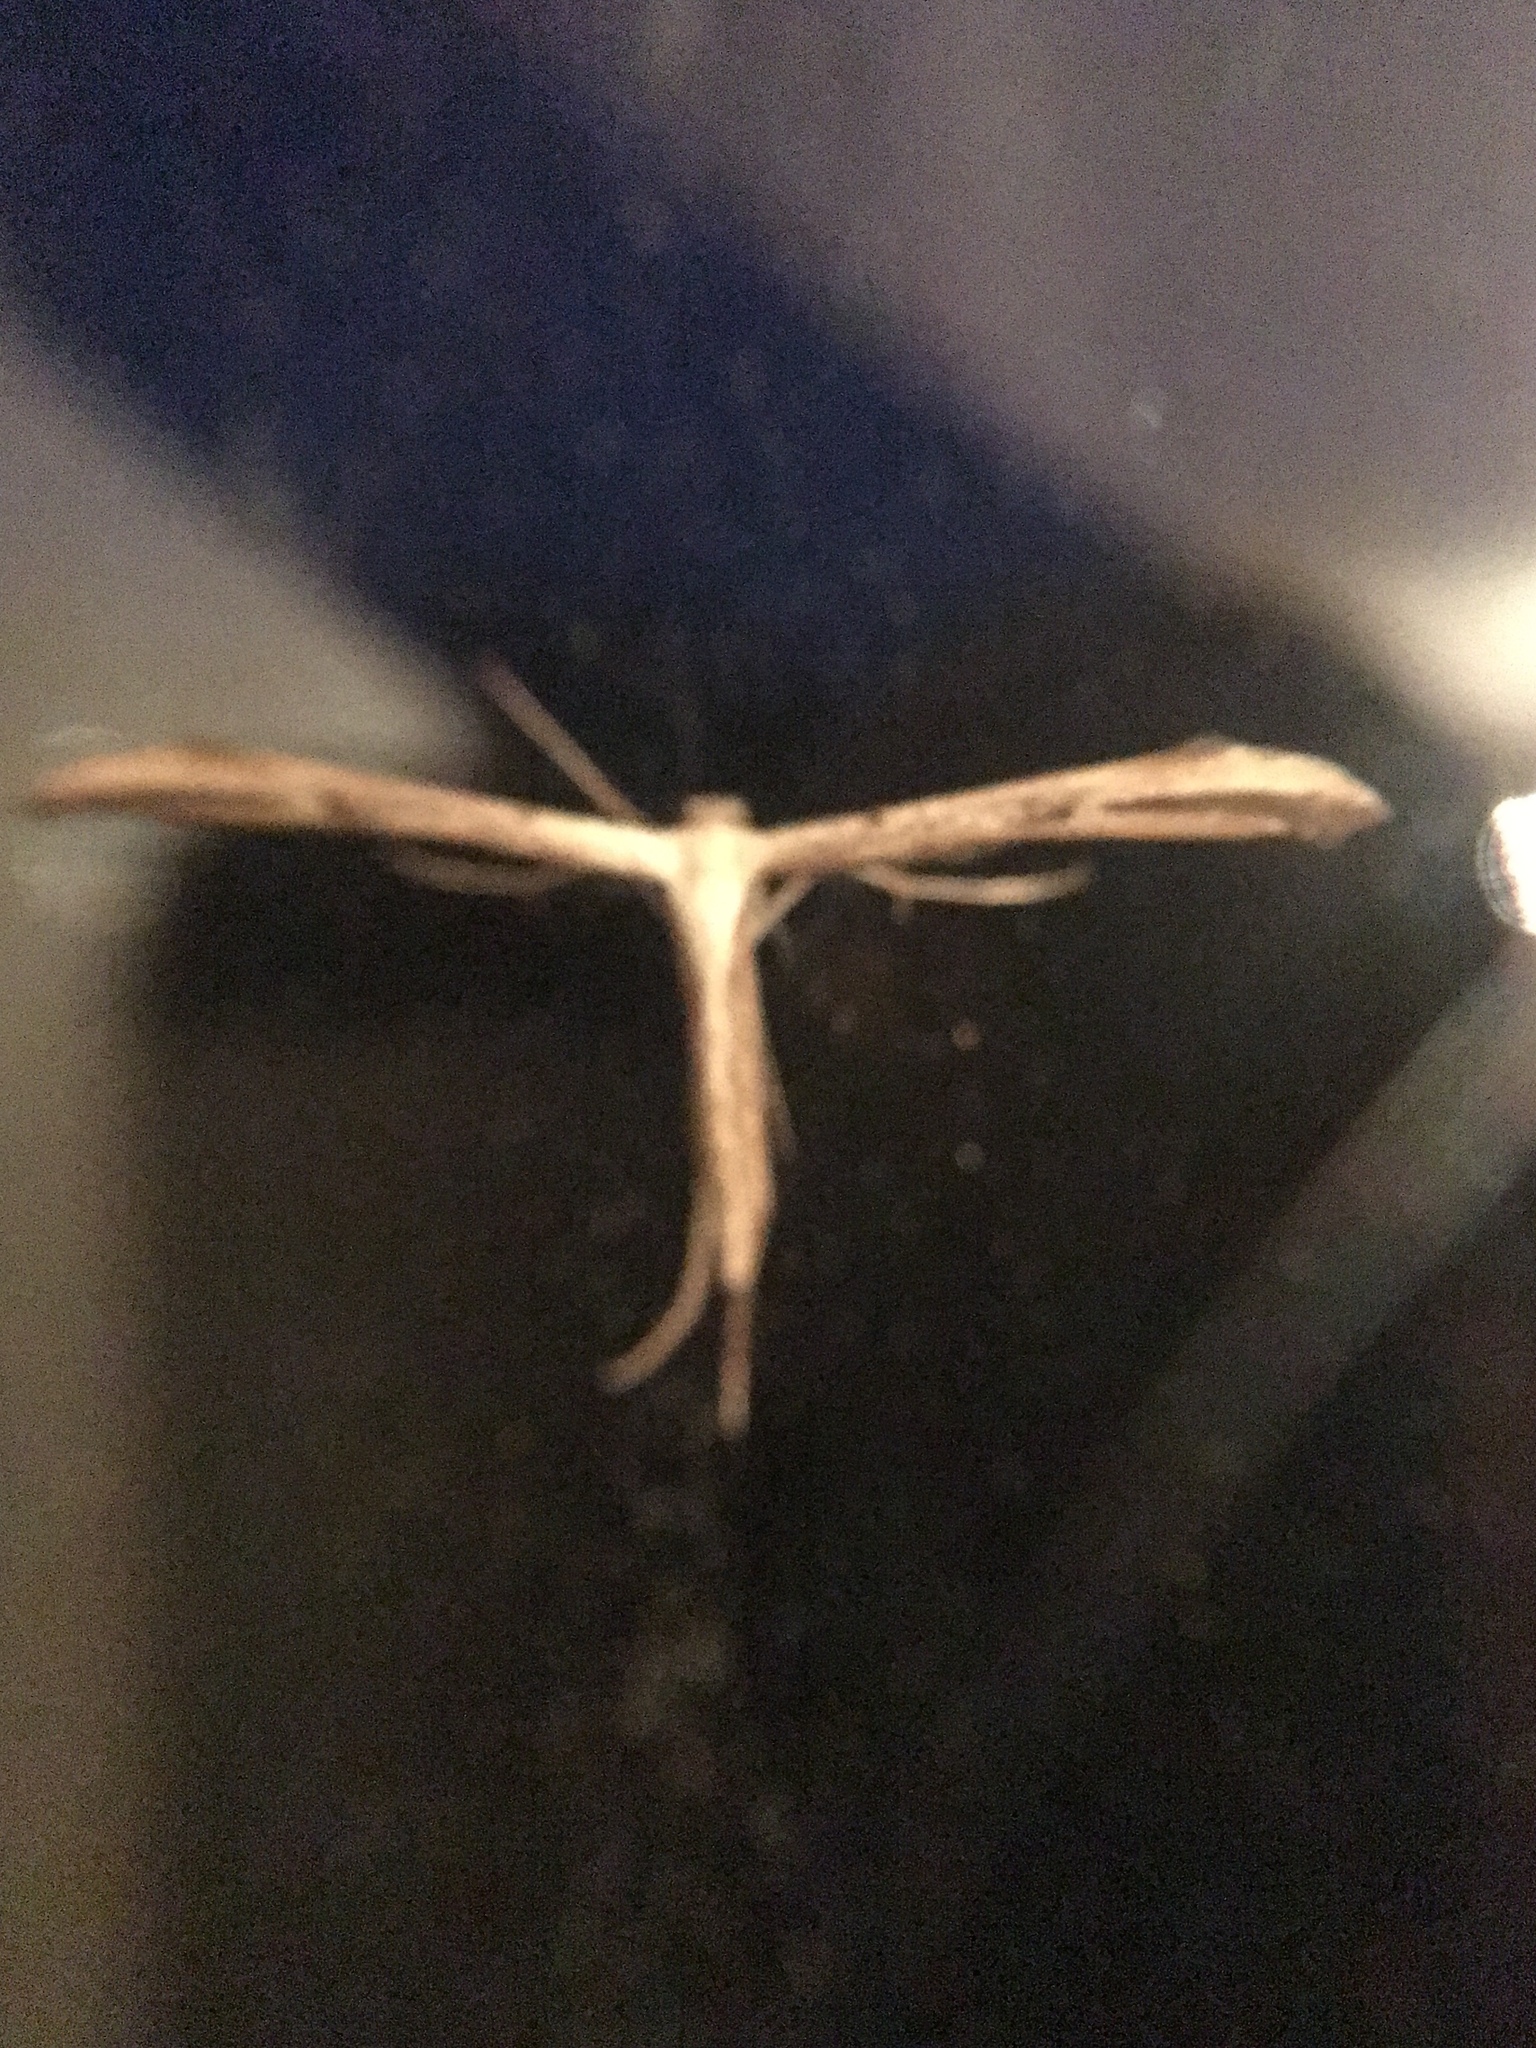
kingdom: Animalia
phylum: Arthropoda
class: Insecta
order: Lepidoptera
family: Pterophoridae
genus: Emmelina
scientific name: Emmelina monodactyla
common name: Common plume
